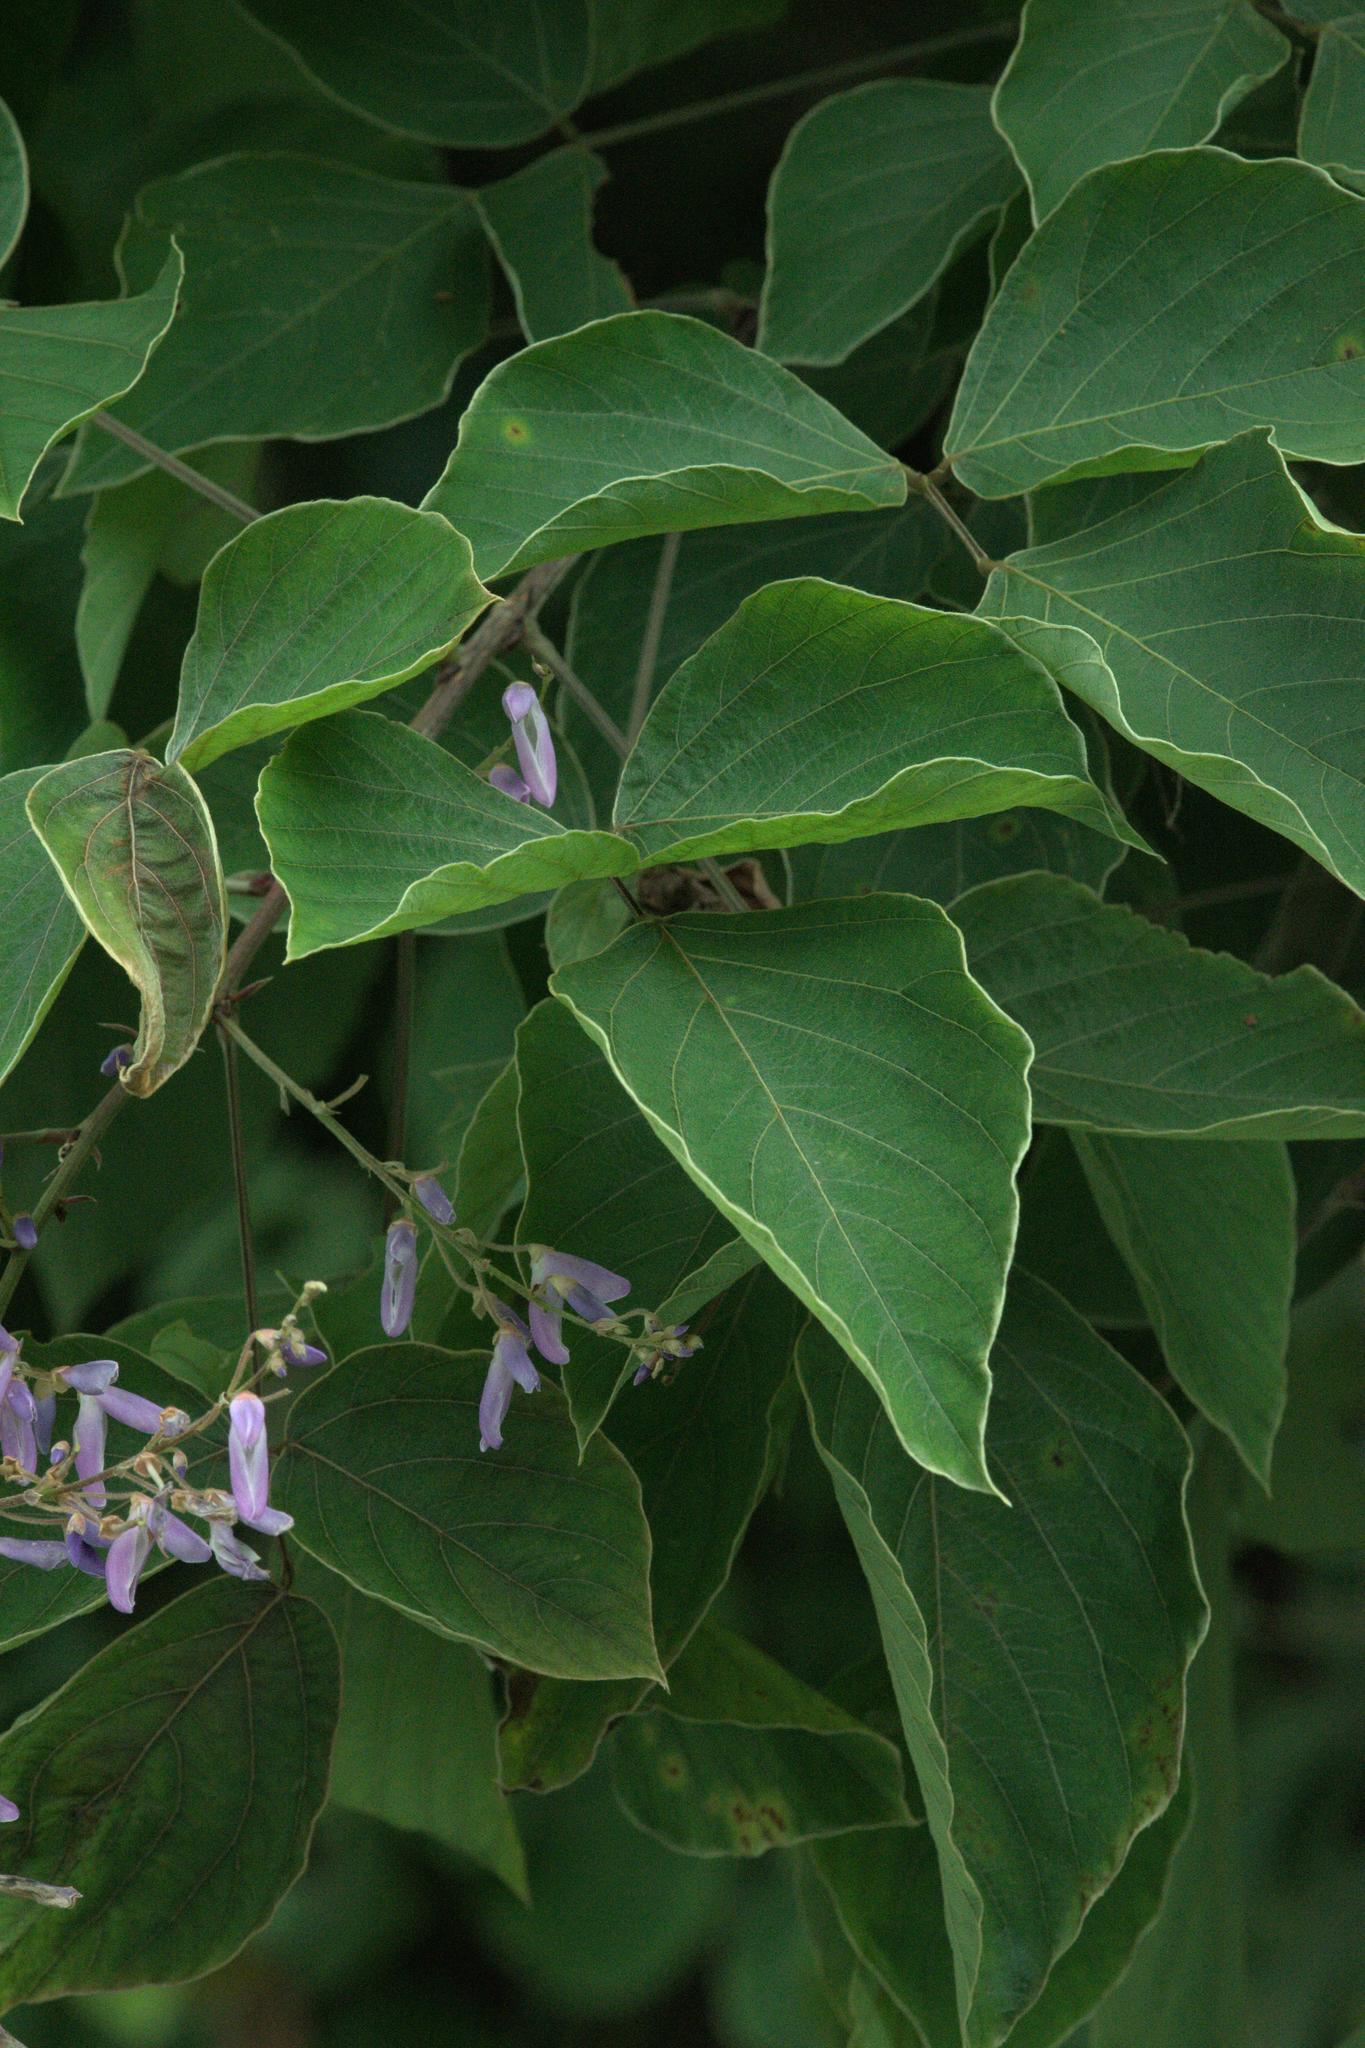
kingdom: Plantae
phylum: Tracheophyta
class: Magnoliopsida
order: Fabales
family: Fabaceae
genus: Sunhangia
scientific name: Sunhangia elegans
